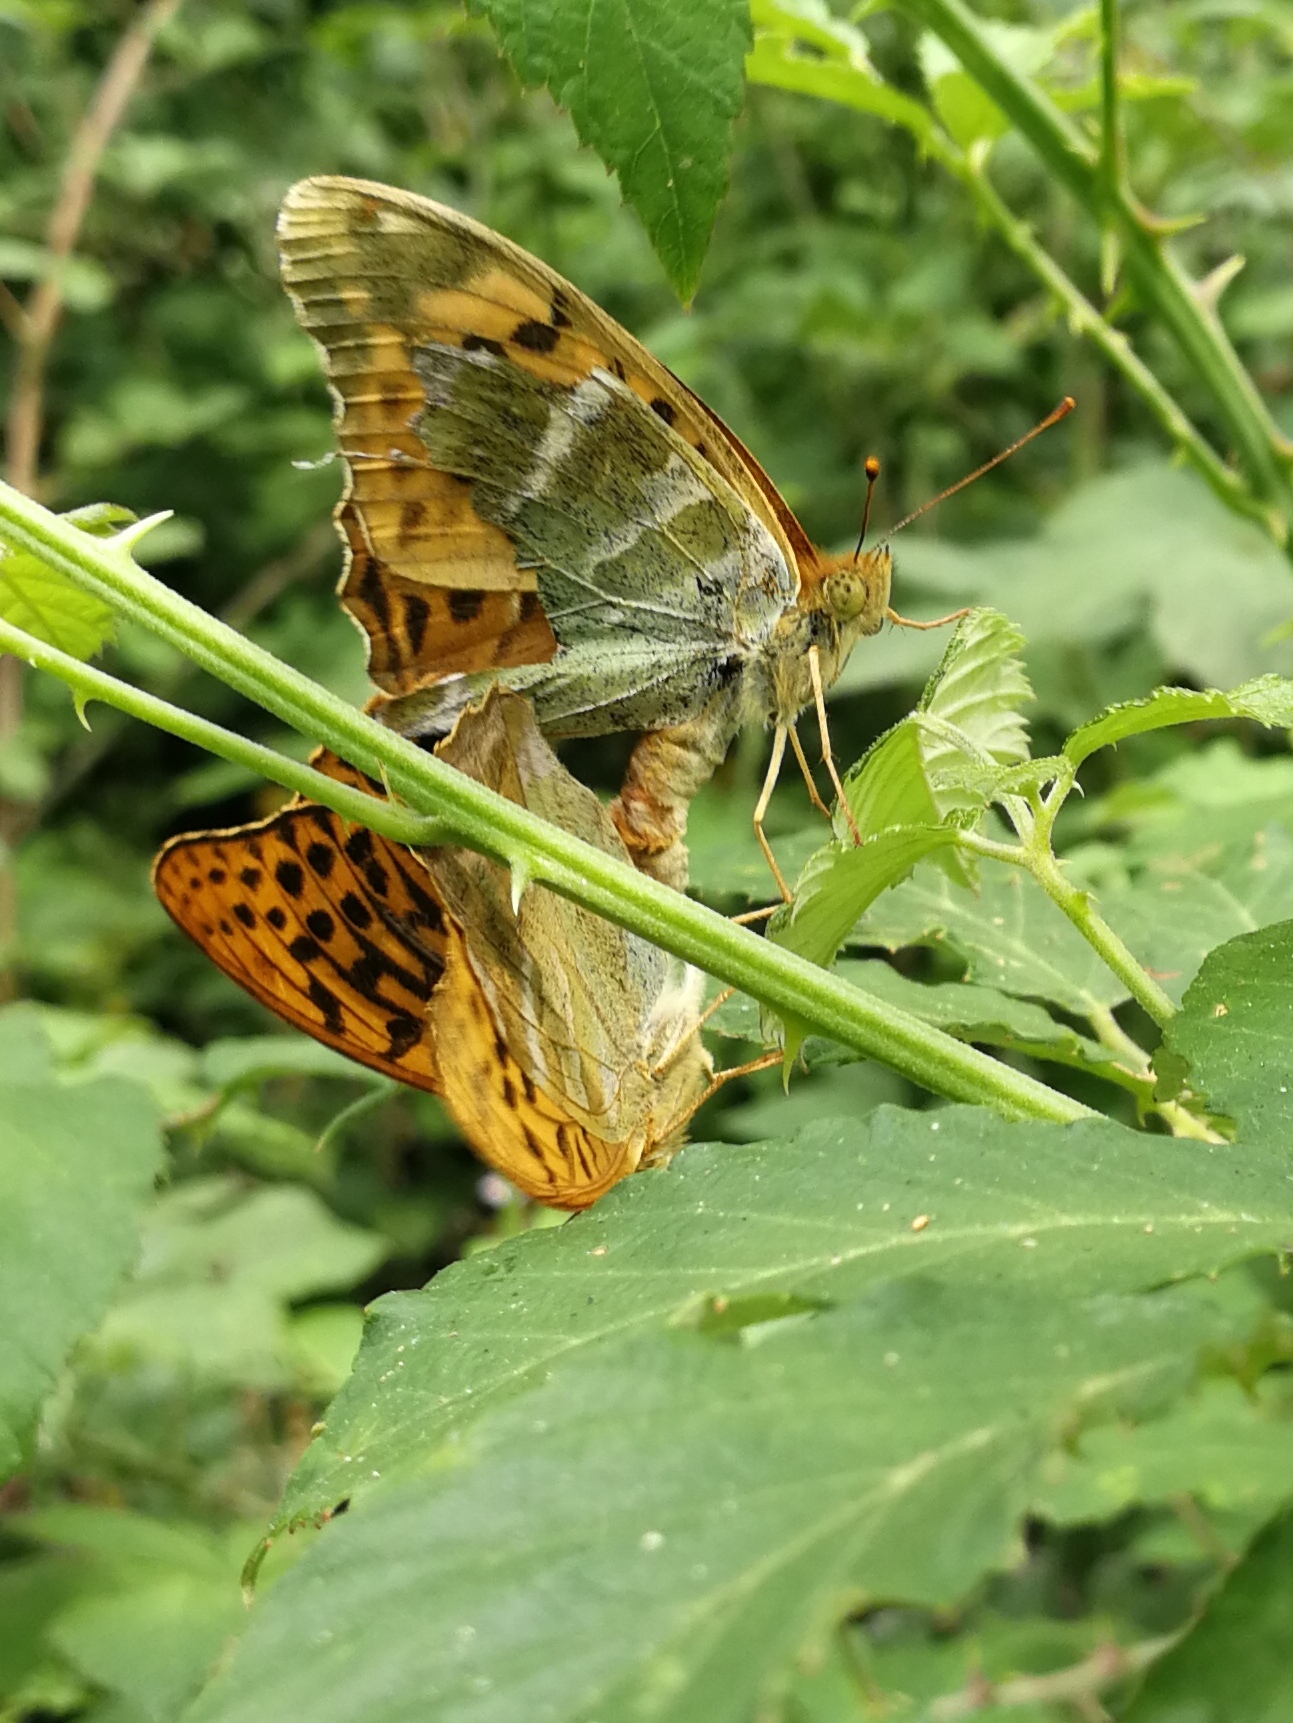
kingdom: Animalia
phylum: Arthropoda
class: Insecta
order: Lepidoptera
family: Nymphalidae
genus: Argynnis
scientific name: Argynnis paphia
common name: Silver-washed fritillary
